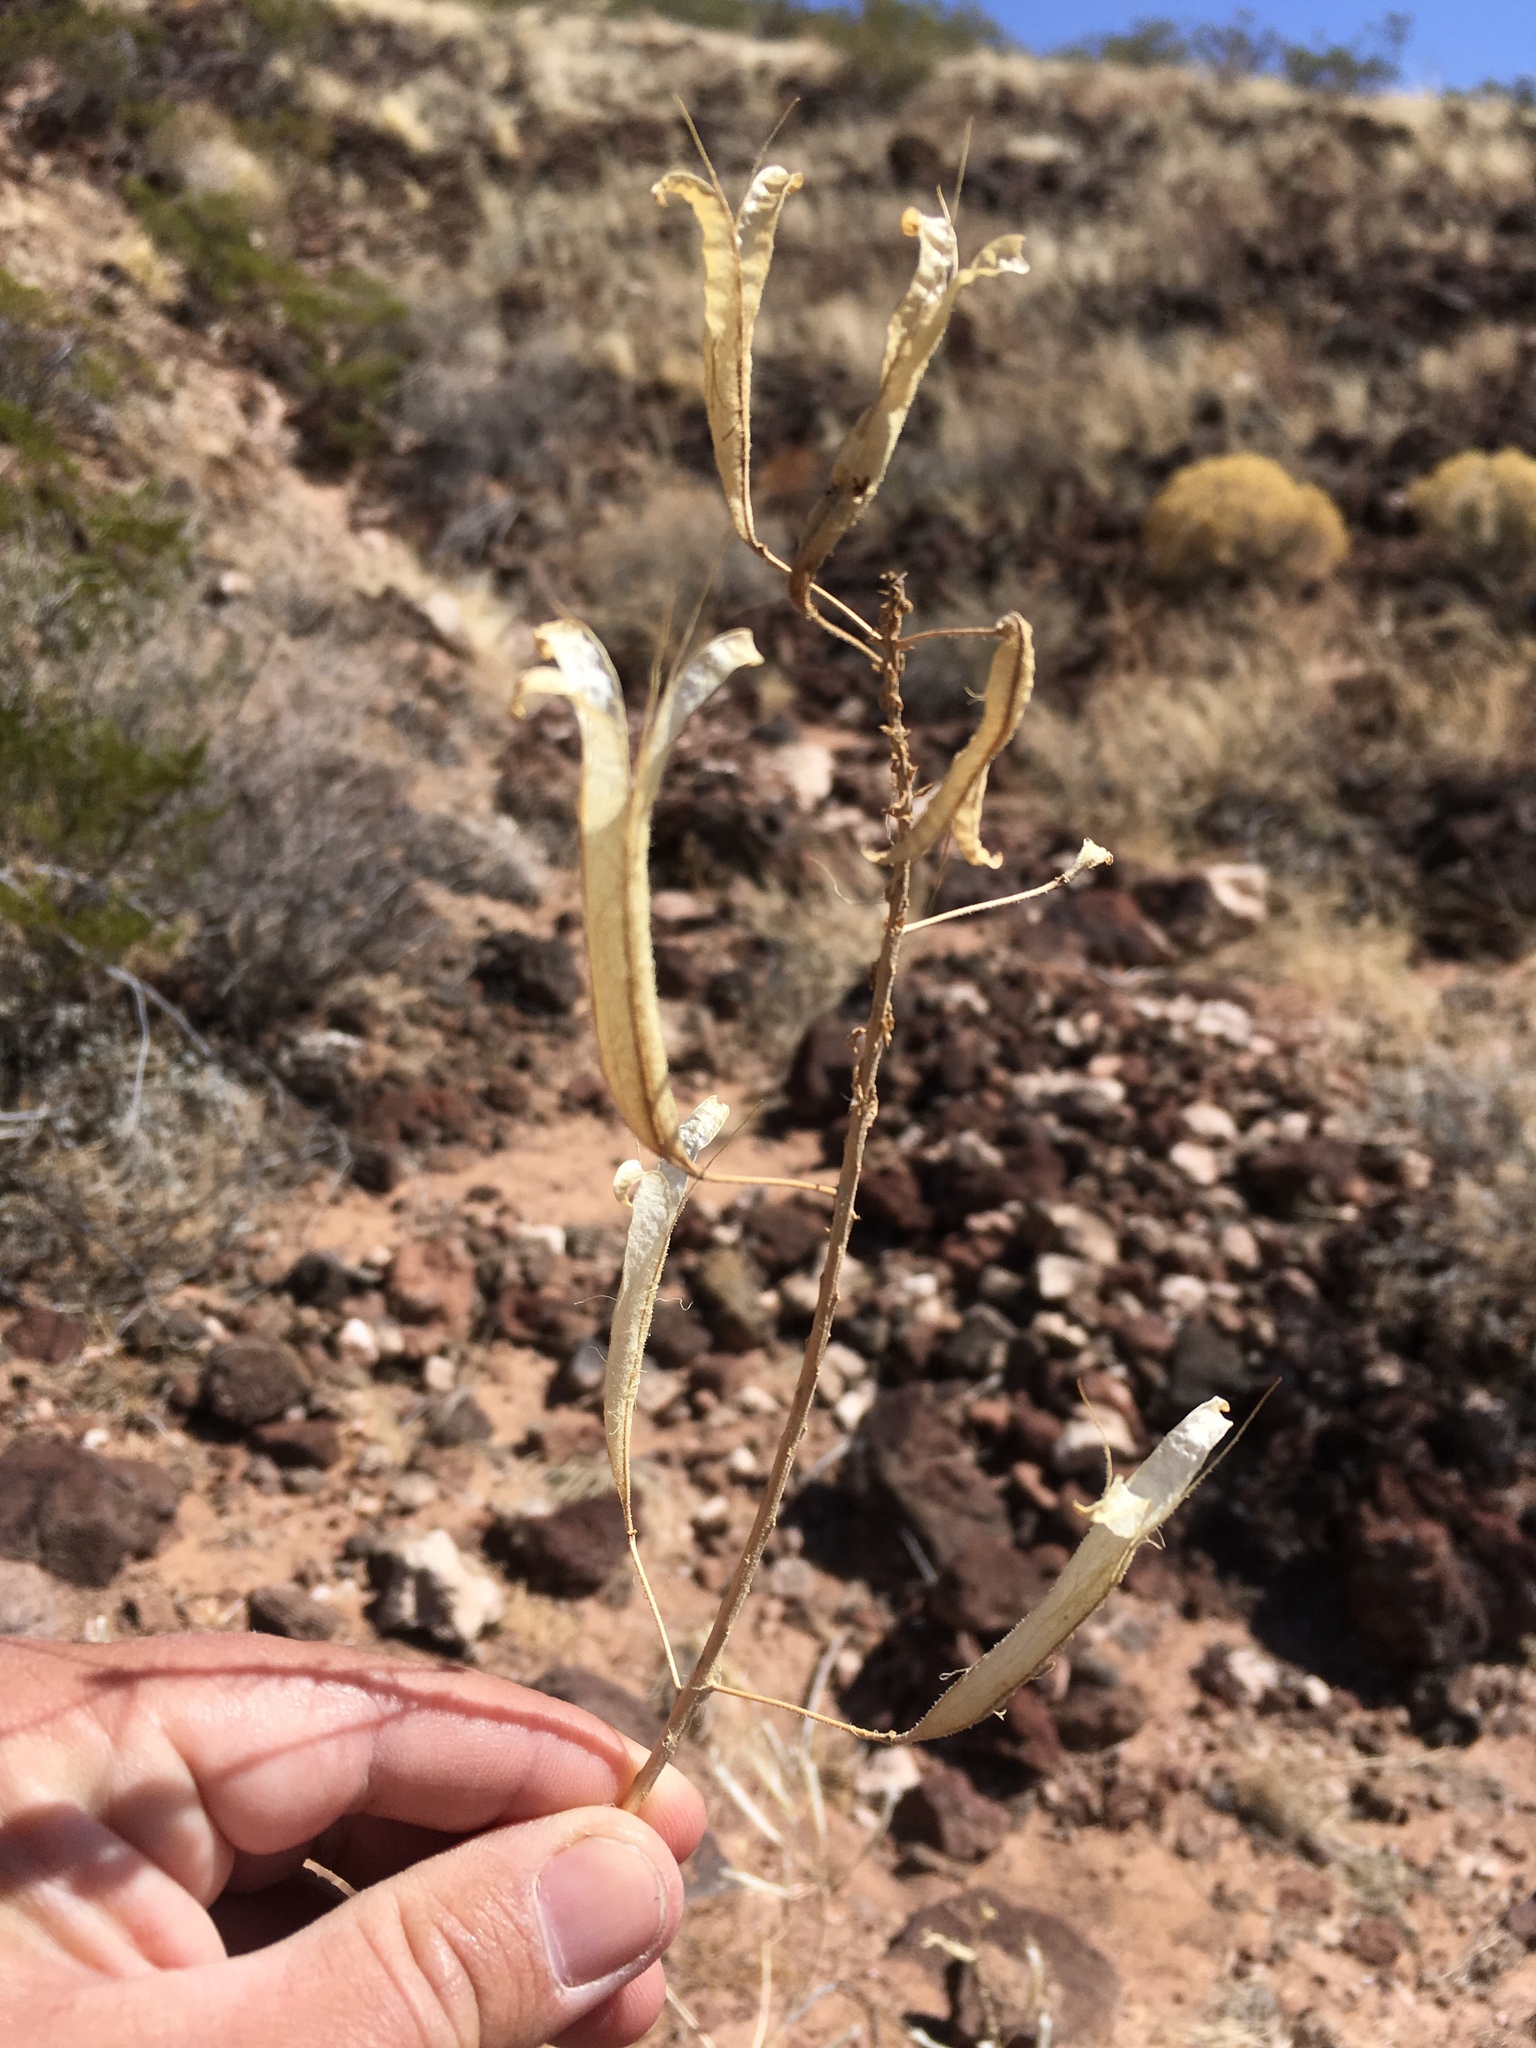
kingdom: Plantae
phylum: Tracheophyta
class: Magnoliopsida
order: Brassicales
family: Cleomaceae
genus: Polanisia
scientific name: Polanisia dodecandra
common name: Clammyweed
